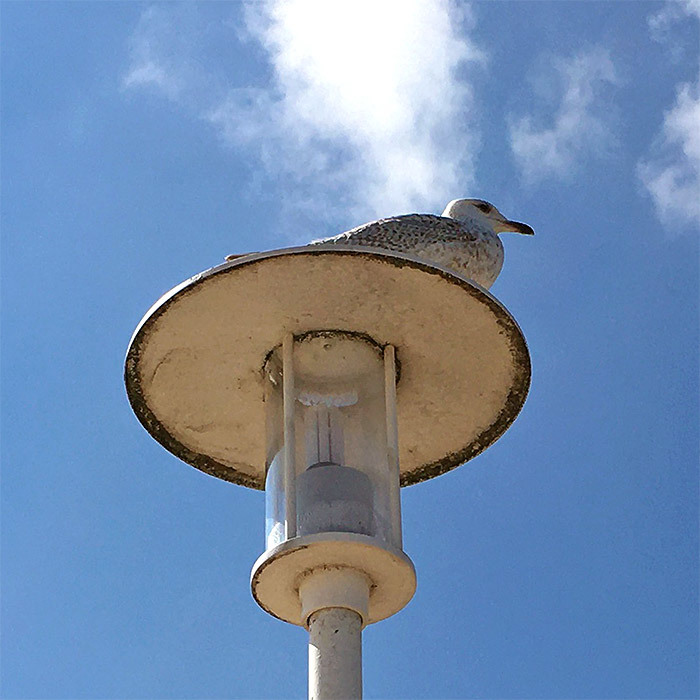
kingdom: Animalia
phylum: Chordata
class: Aves
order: Charadriiformes
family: Laridae
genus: Larus
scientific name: Larus argentatus
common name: Herring gull
